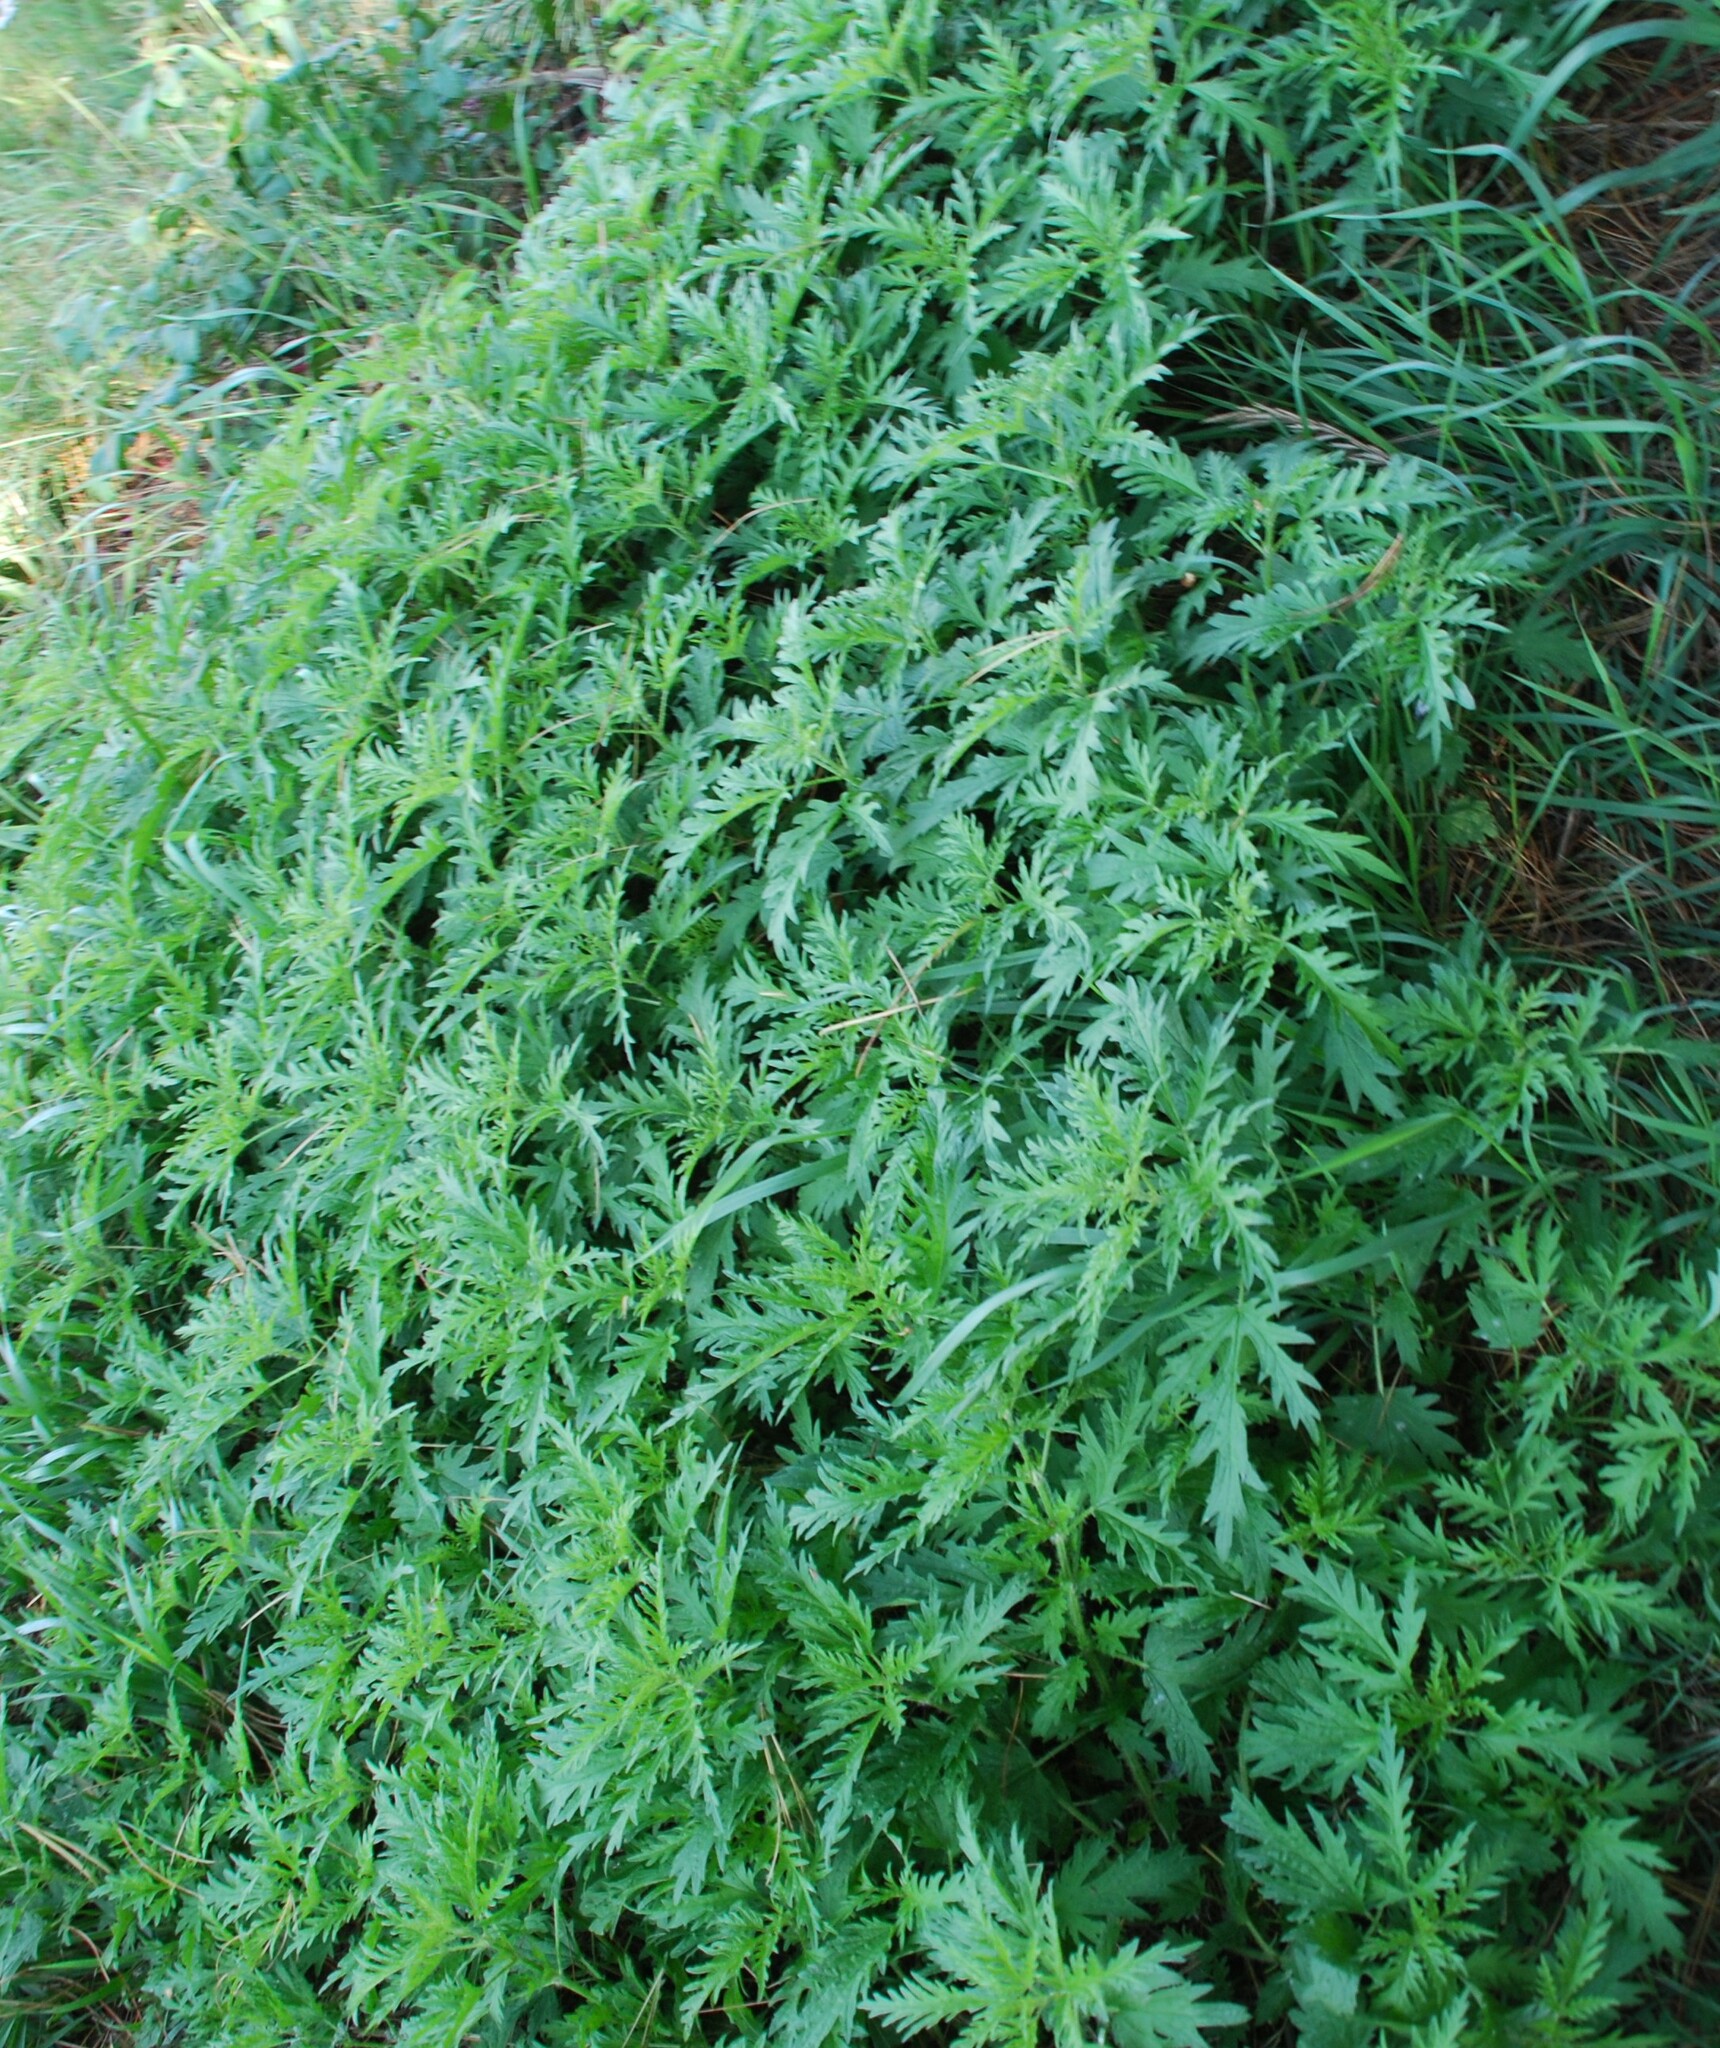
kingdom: Plantae
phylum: Tracheophyta
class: Magnoliopsida
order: Rosales
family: Urticaceae
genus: Urtica
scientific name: Urtica cannabina
